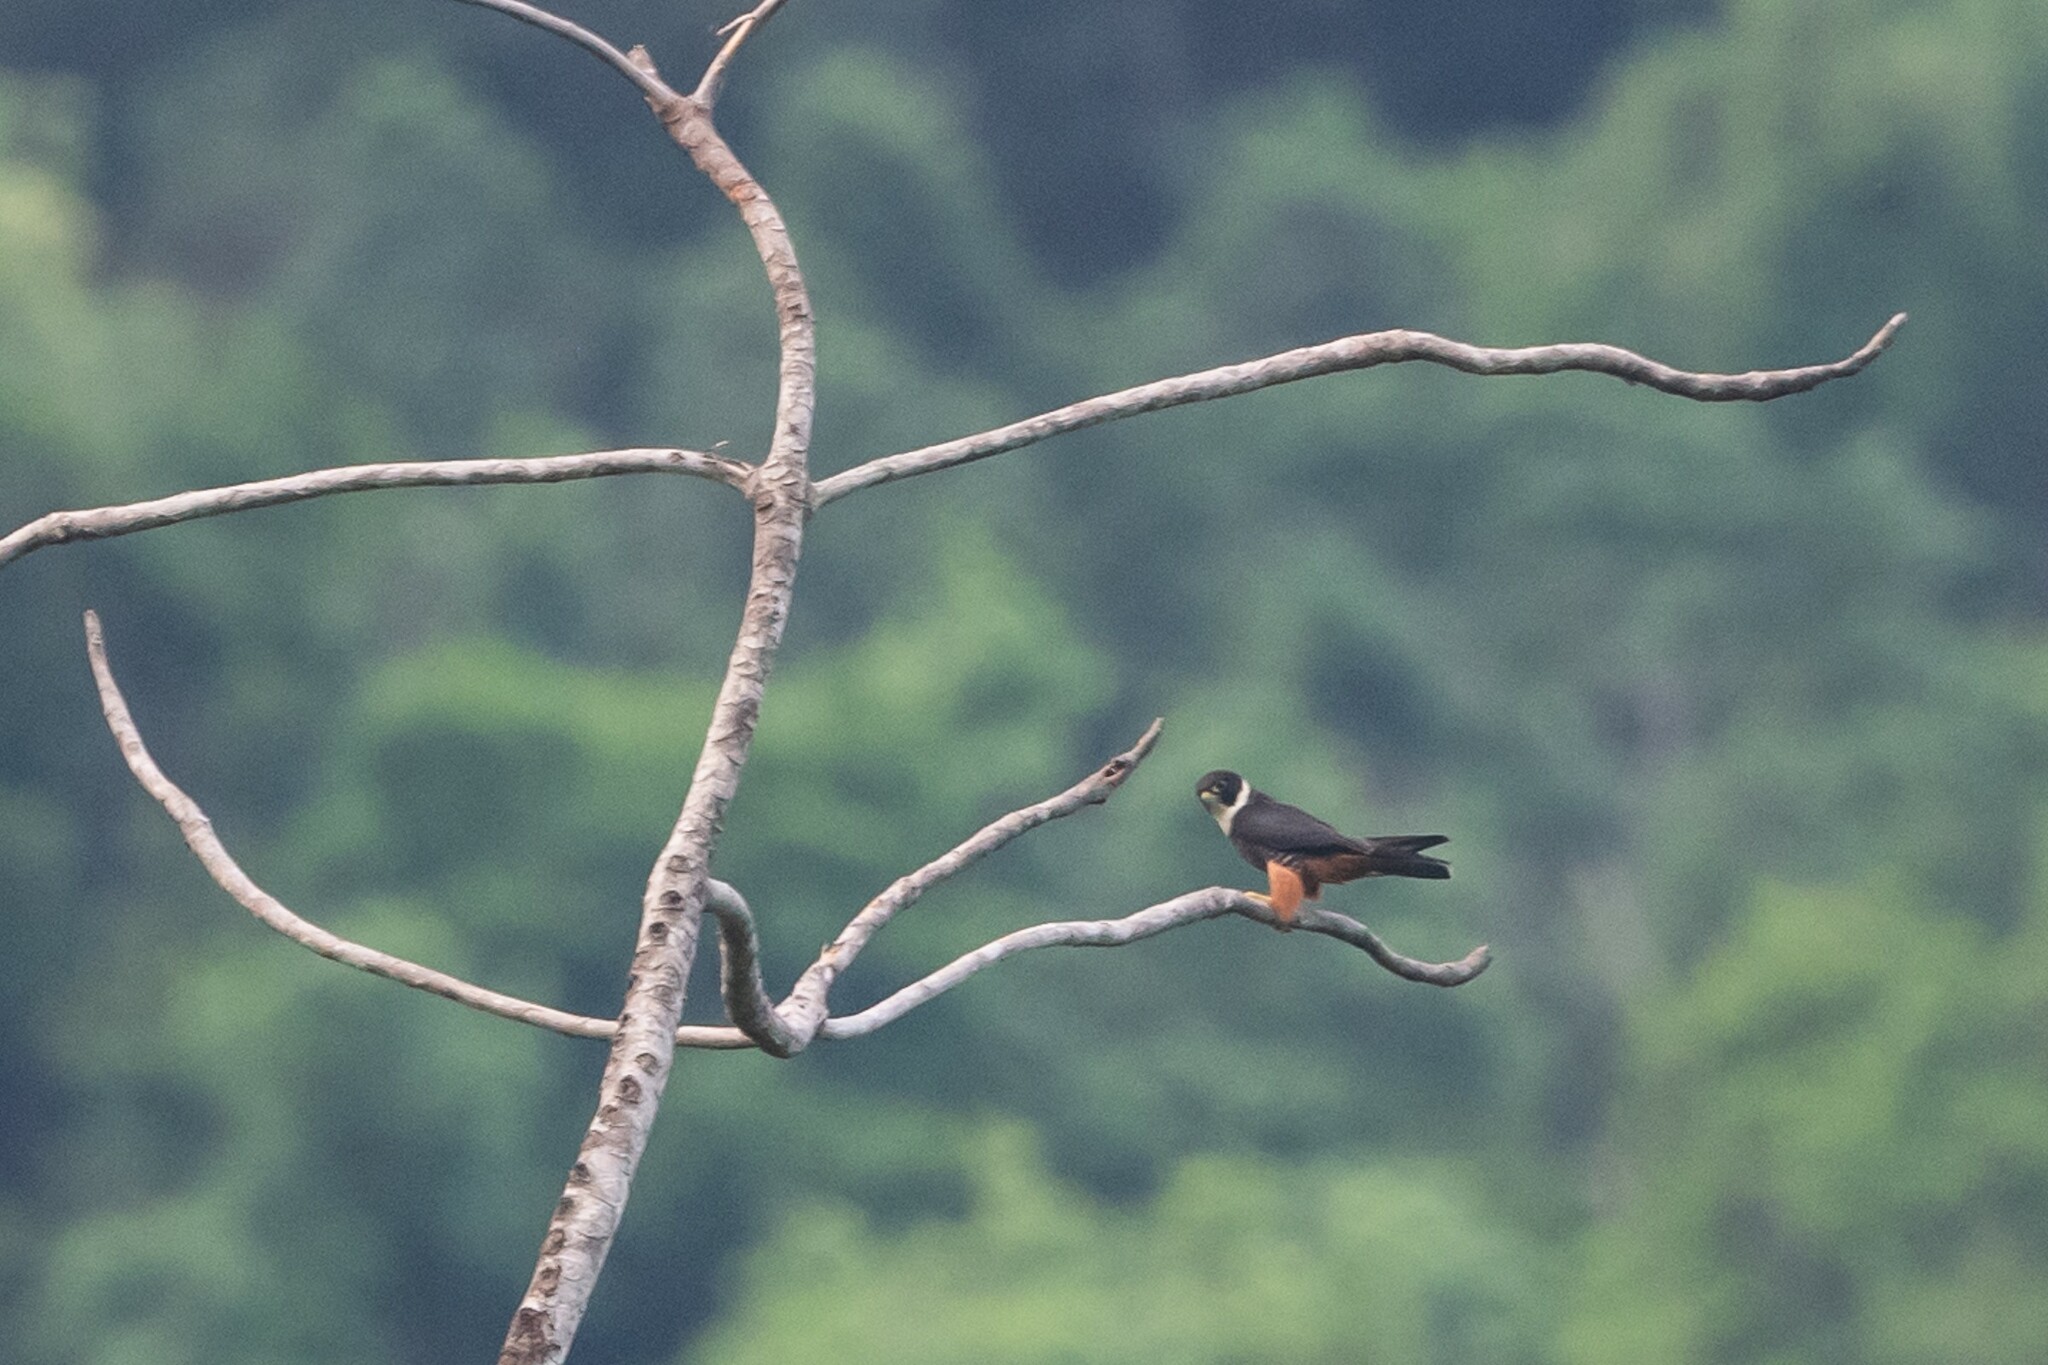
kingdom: Animalia
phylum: Chordata
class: Aves
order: Falconiformes
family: Falconidae
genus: Falco
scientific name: Falco rufigularis
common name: Bat falcon
